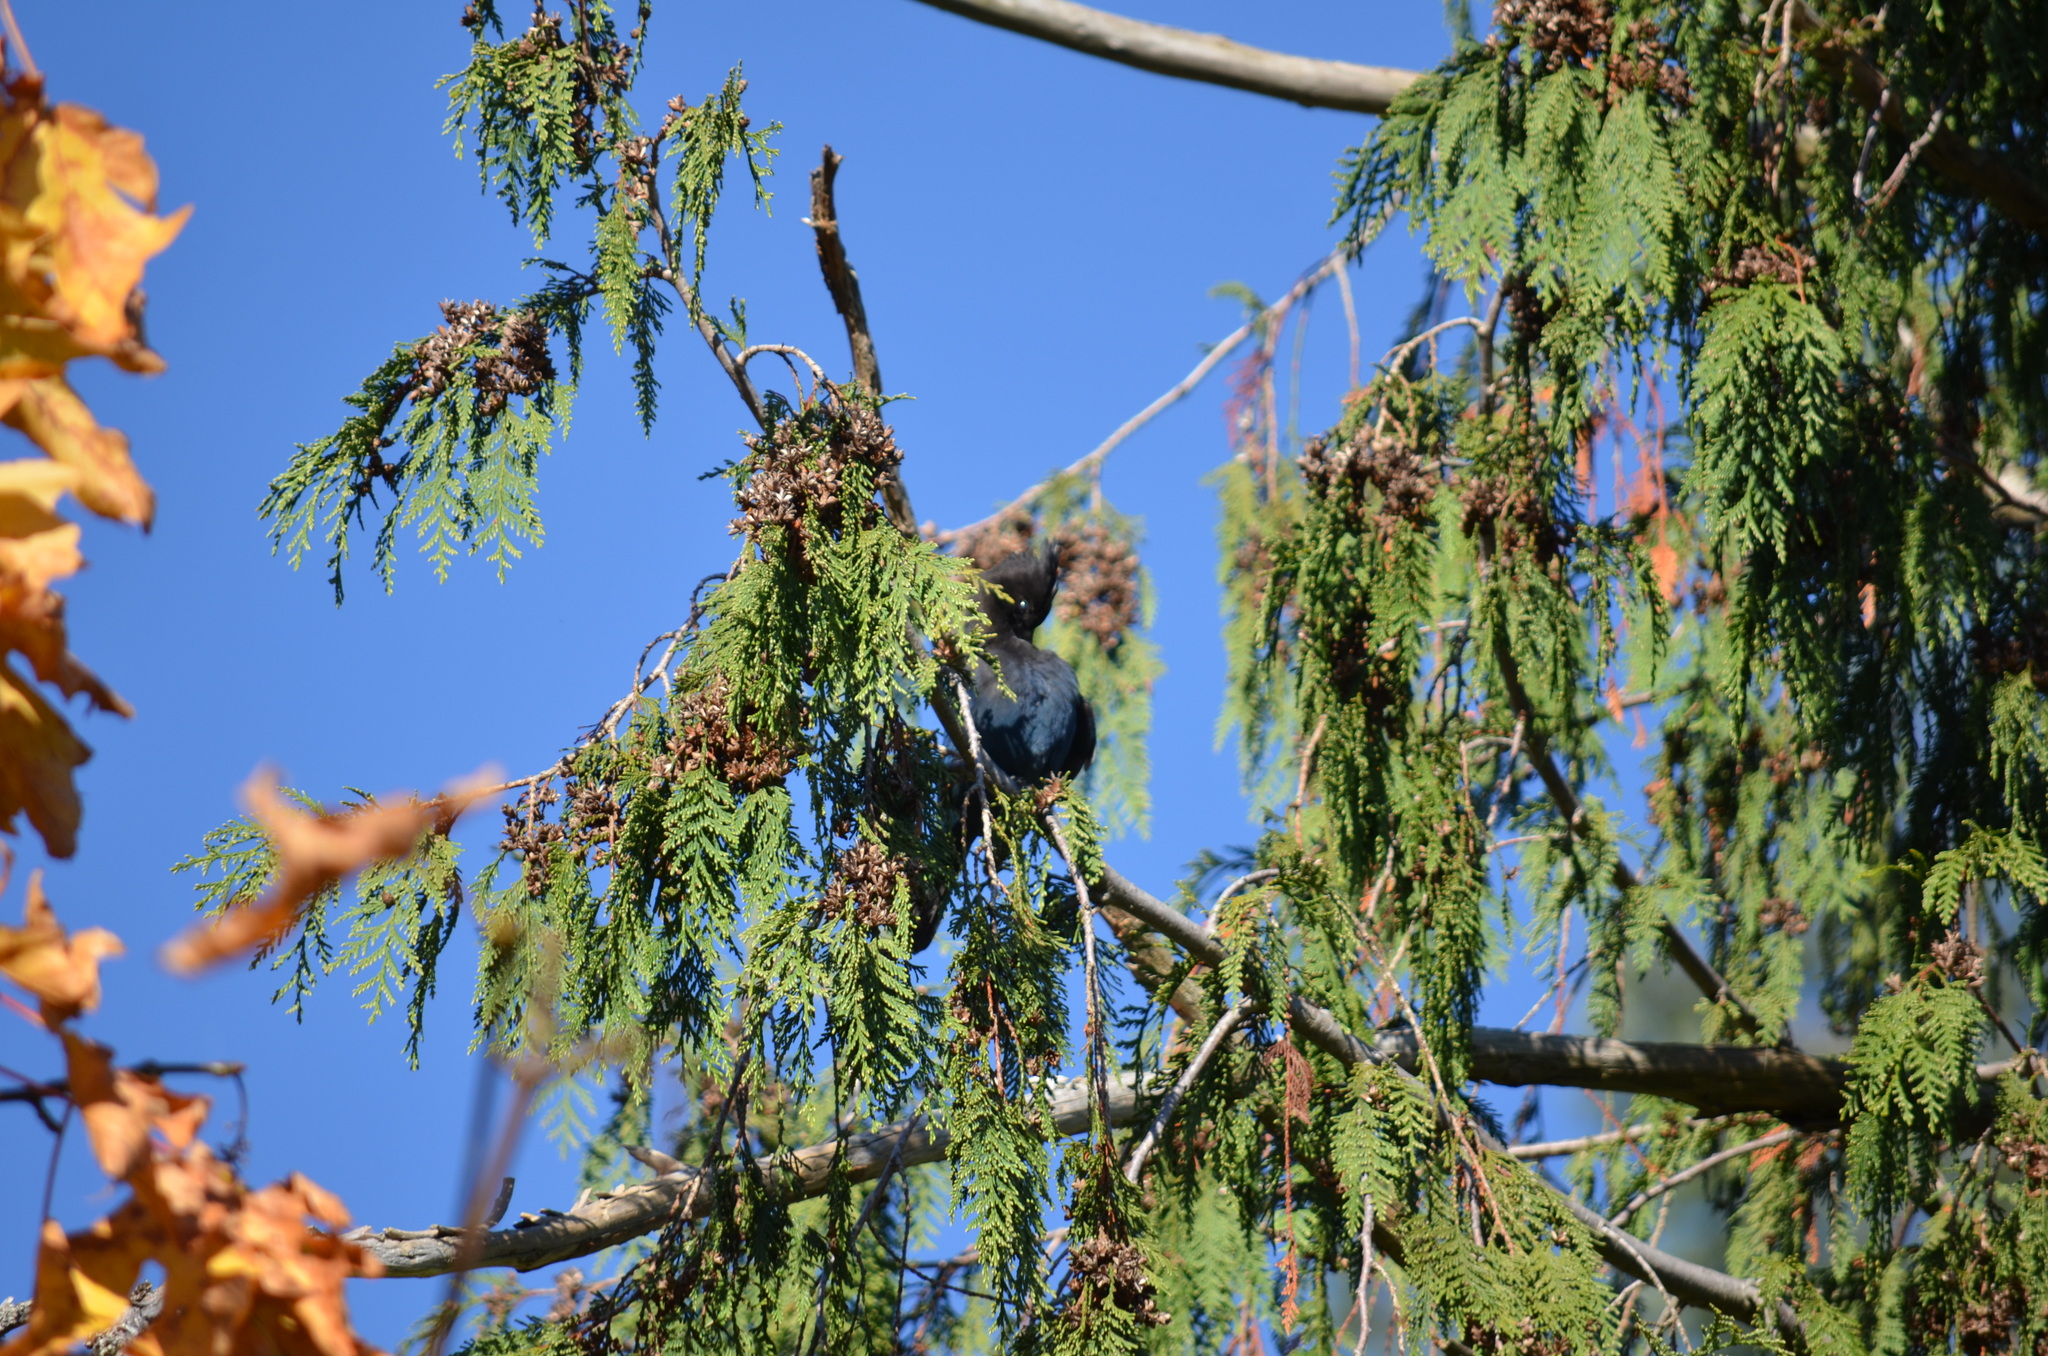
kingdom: Animalia
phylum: Chordata
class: Aves
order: Passeriformes
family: Corvidae
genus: Cyanocitta
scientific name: Cyanocitta stelleri
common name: Steller's jay
